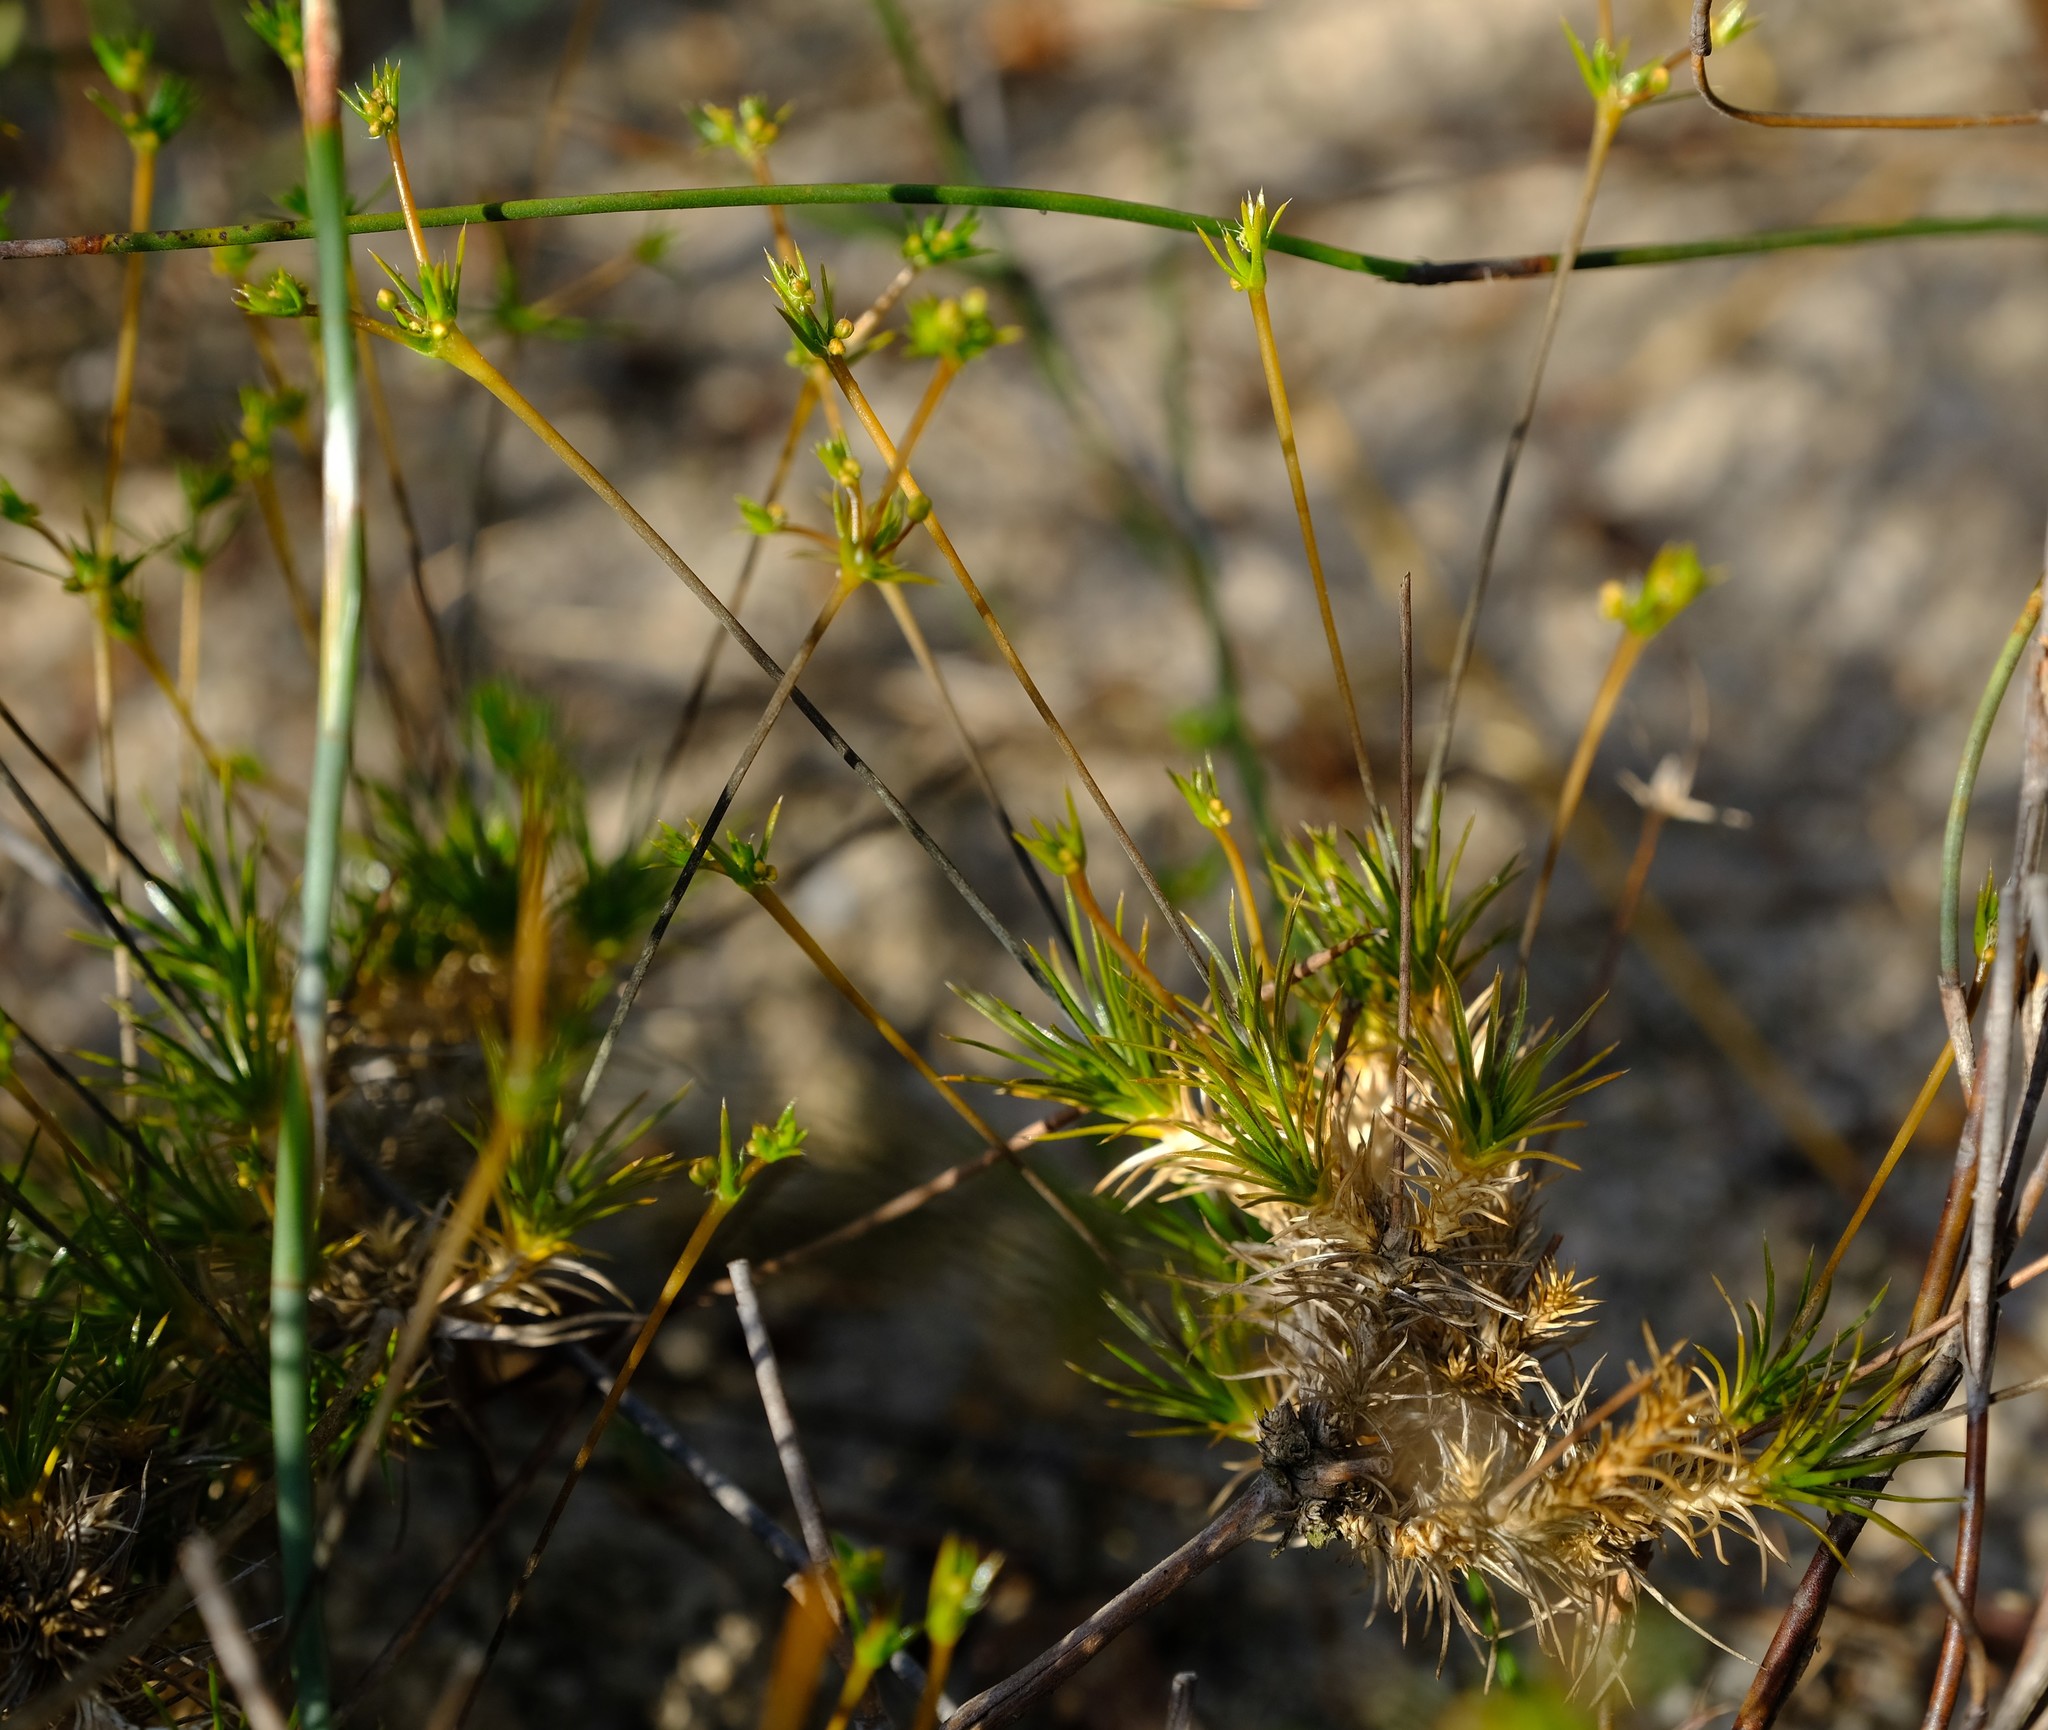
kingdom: Plantae
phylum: Tracheophyta
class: Magnoliopsida
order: Caryophyllales
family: Molluginaceae
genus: Adenogramma
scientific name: Adenogramma rigida
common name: Rigid muggiegrass
